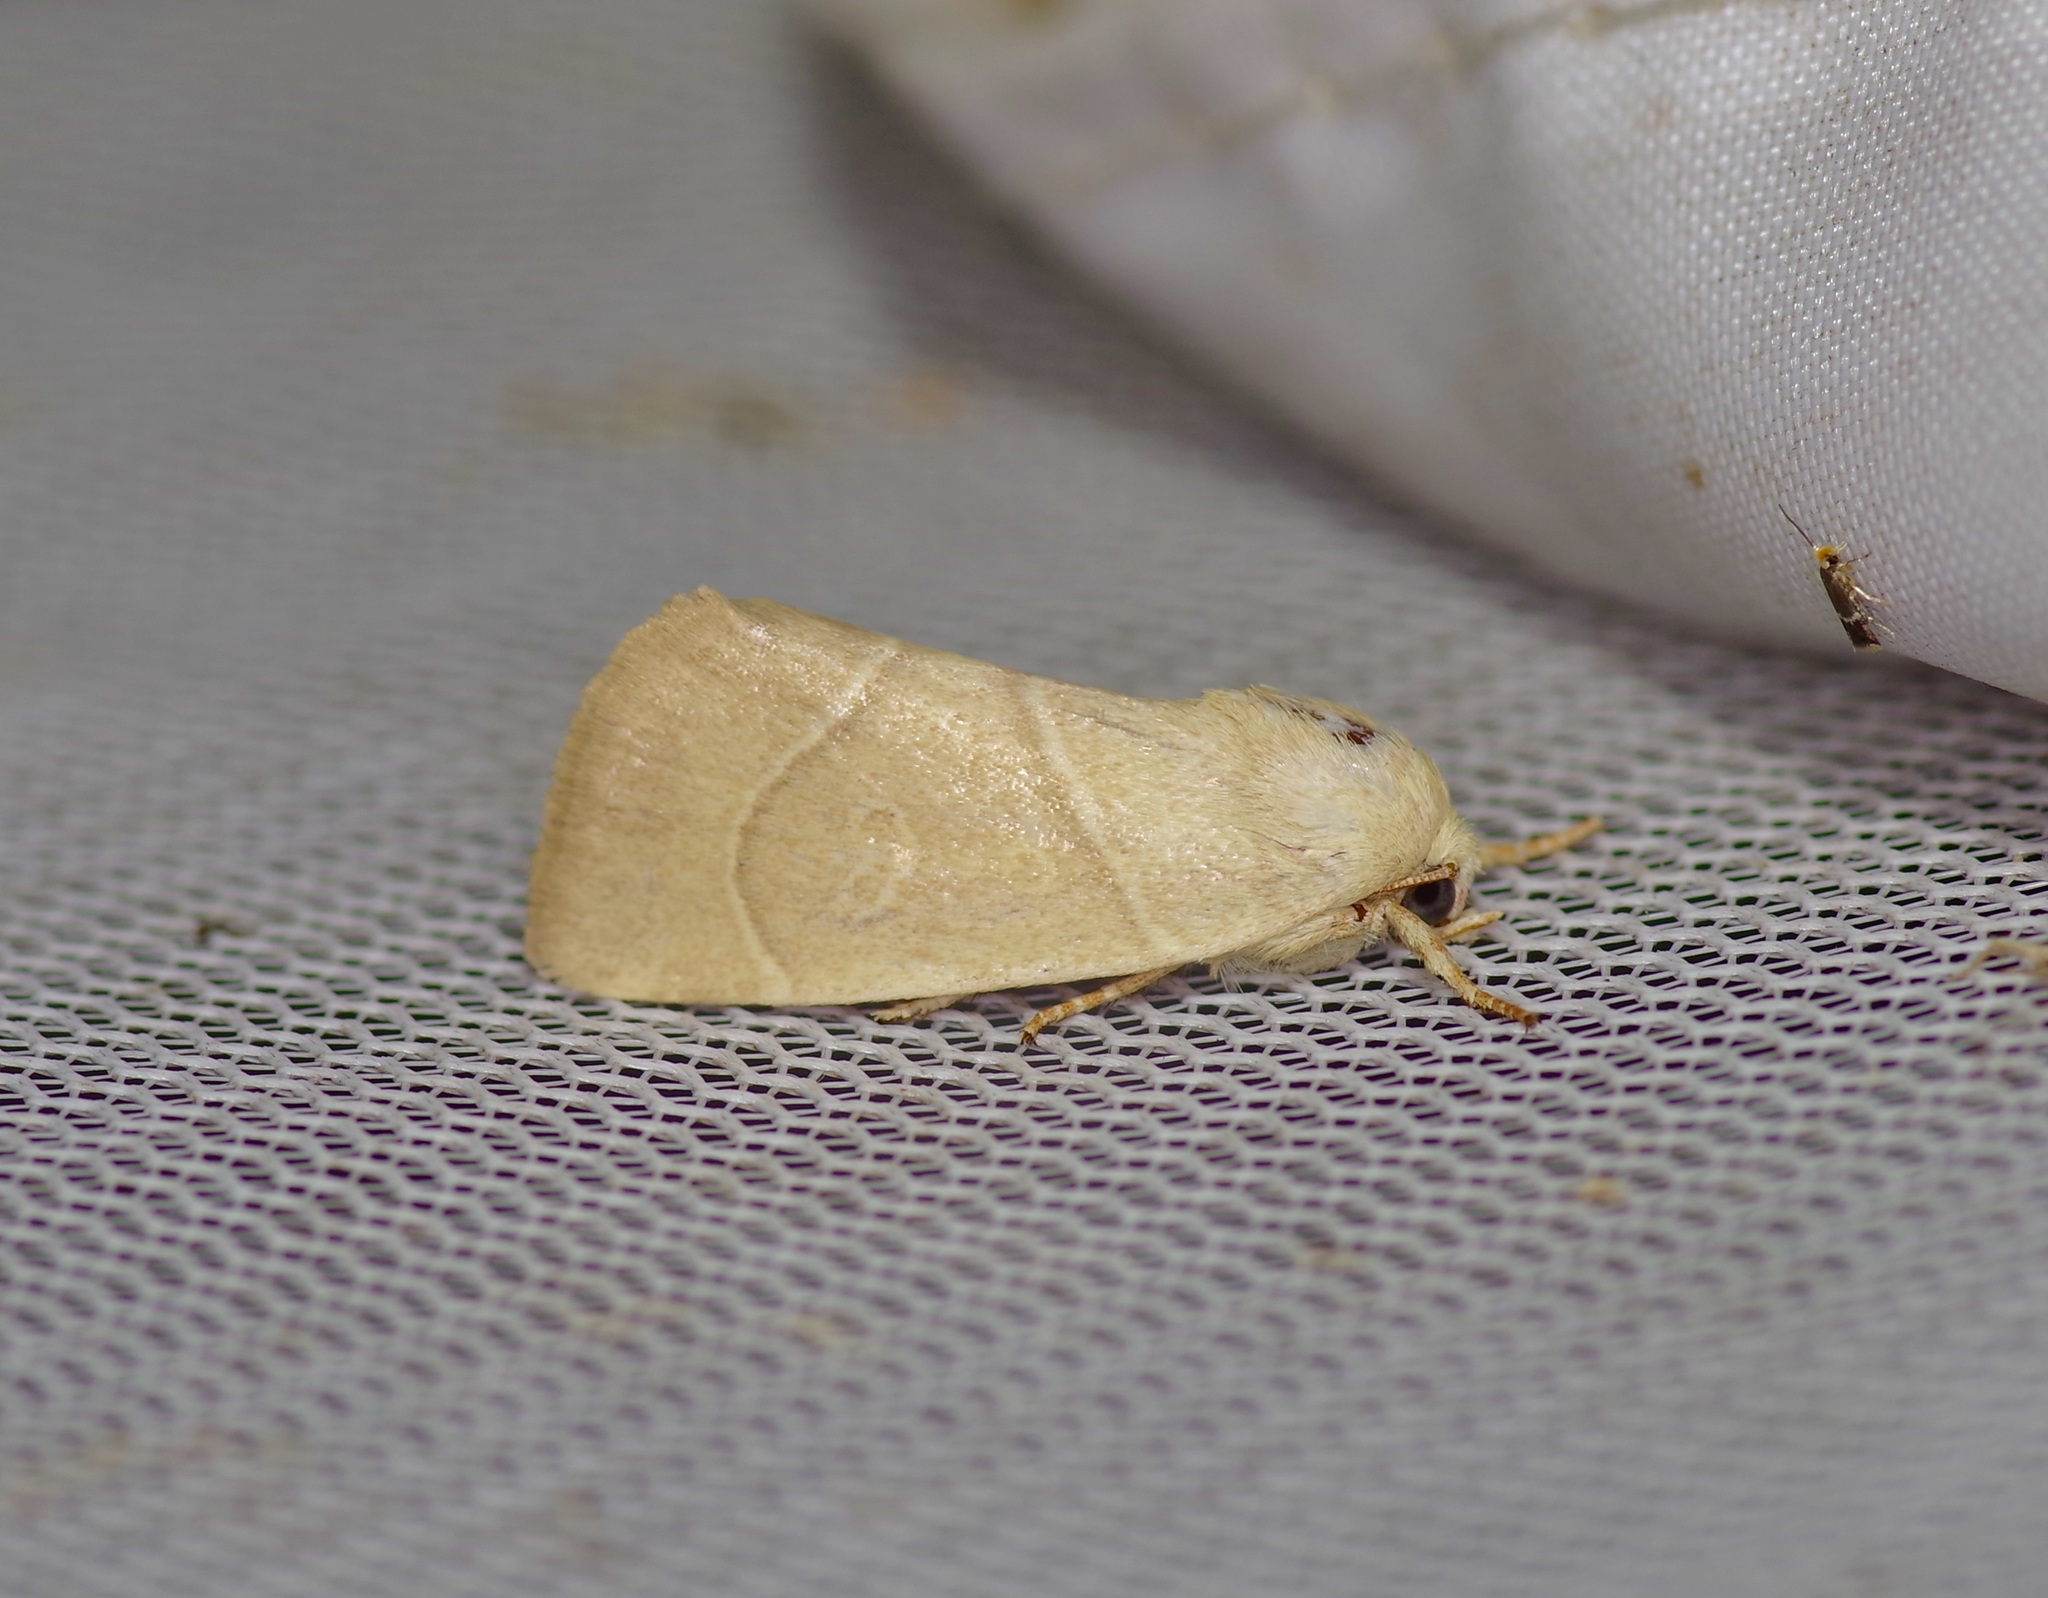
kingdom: Animalia
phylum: Arthropoda
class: Insecta
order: Lepidoptera
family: Noctuidae
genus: Cosmia
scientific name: Cosmia calami
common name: American dun-bar moth
